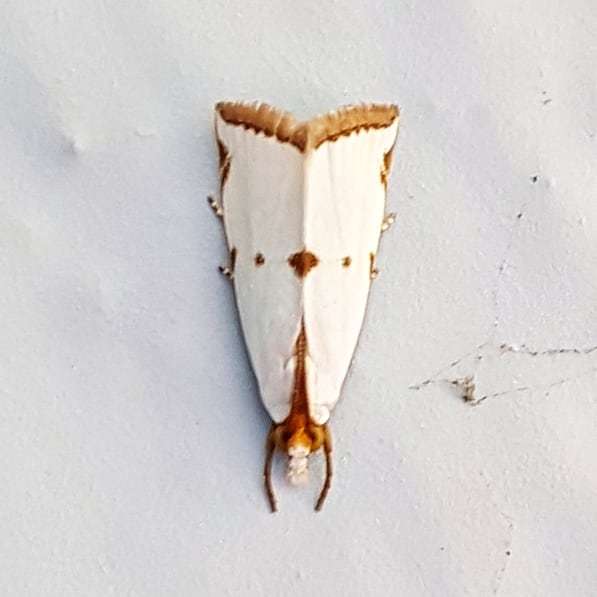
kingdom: Animalia
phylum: Arthropoda
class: Insecta
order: Lepidoptera
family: Crambidae
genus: Argyria
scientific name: Argyria lacteella
